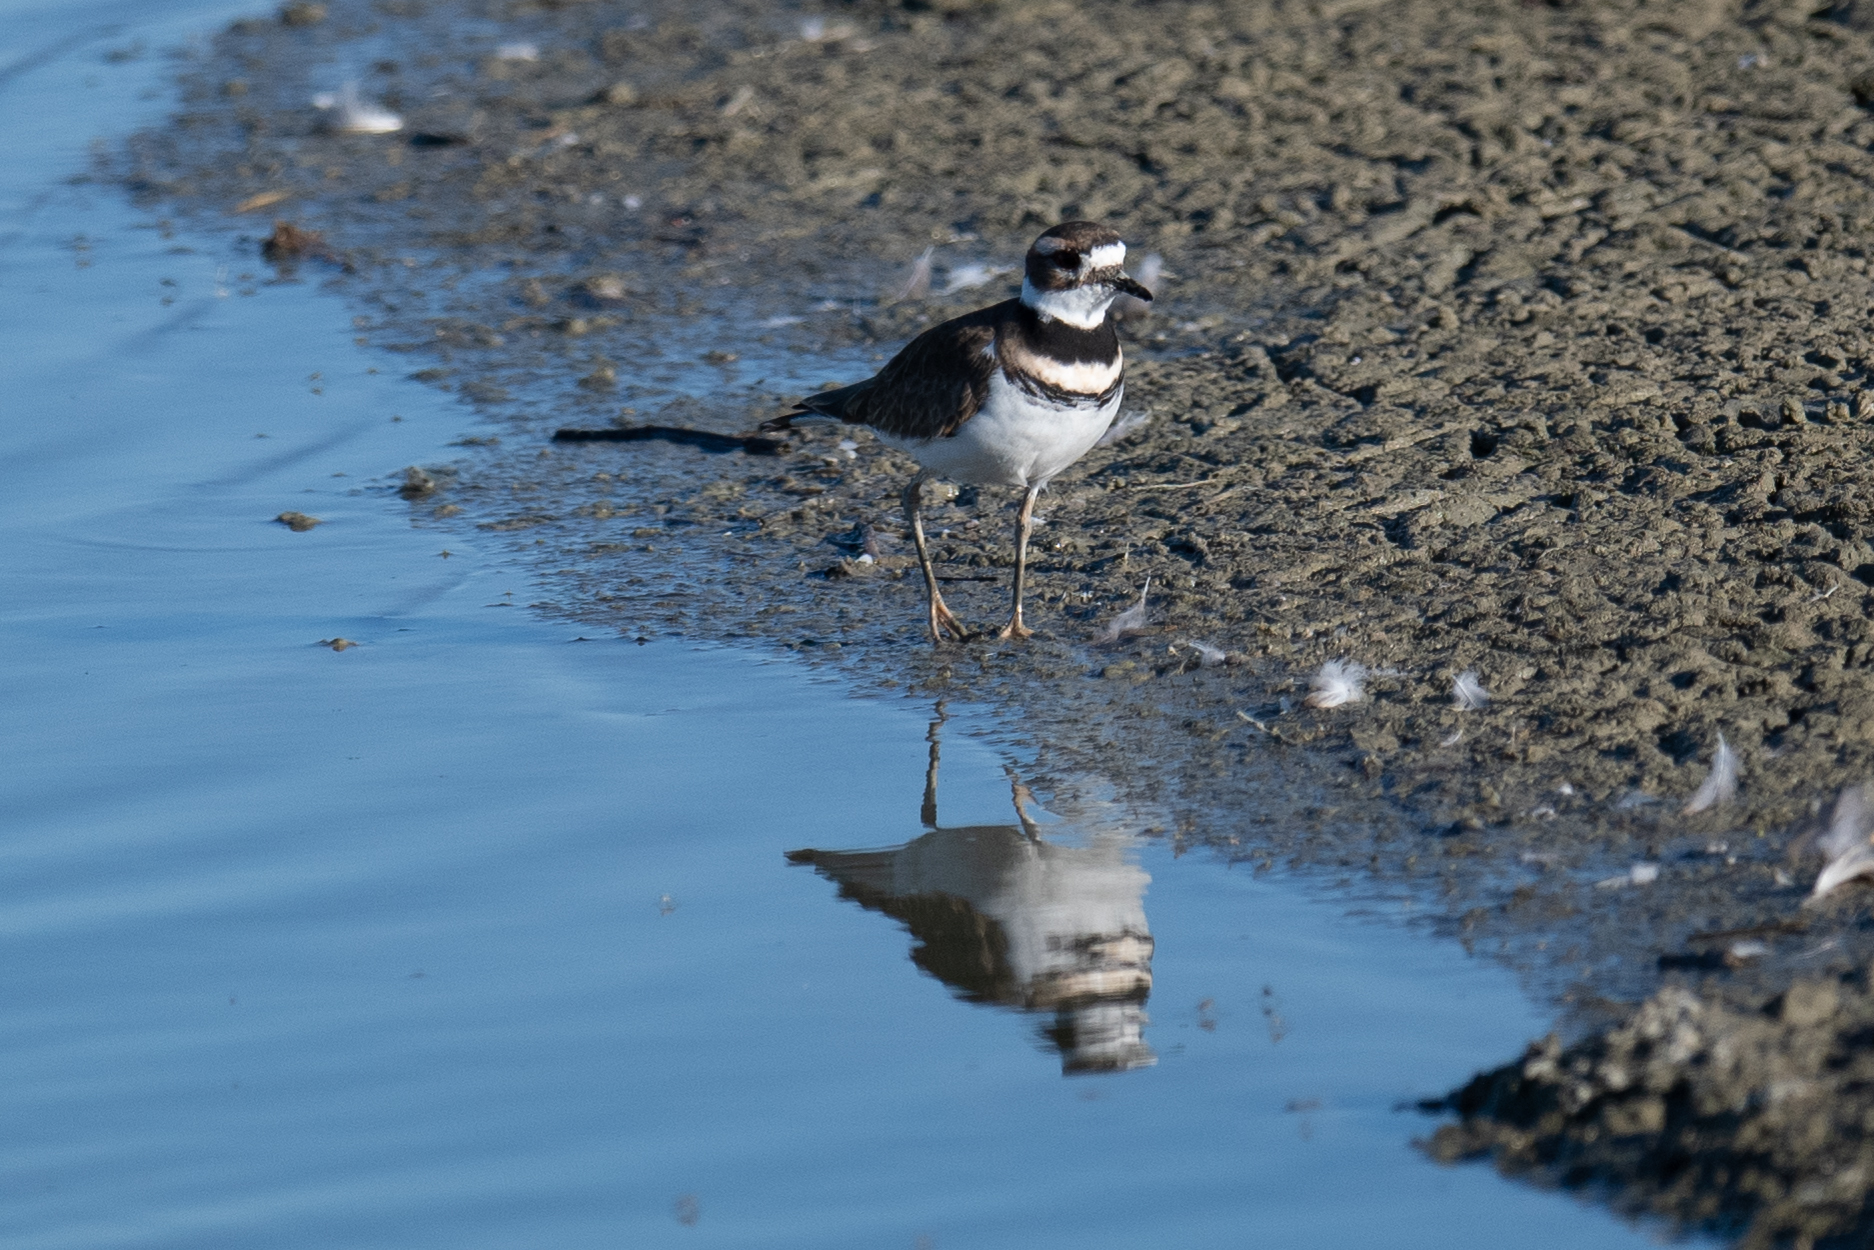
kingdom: Animalia
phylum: Chordata
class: Aves
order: Charadriiformes
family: Charadriidae
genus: Charadrius
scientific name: Charadrius vociferus
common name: Killdeer
